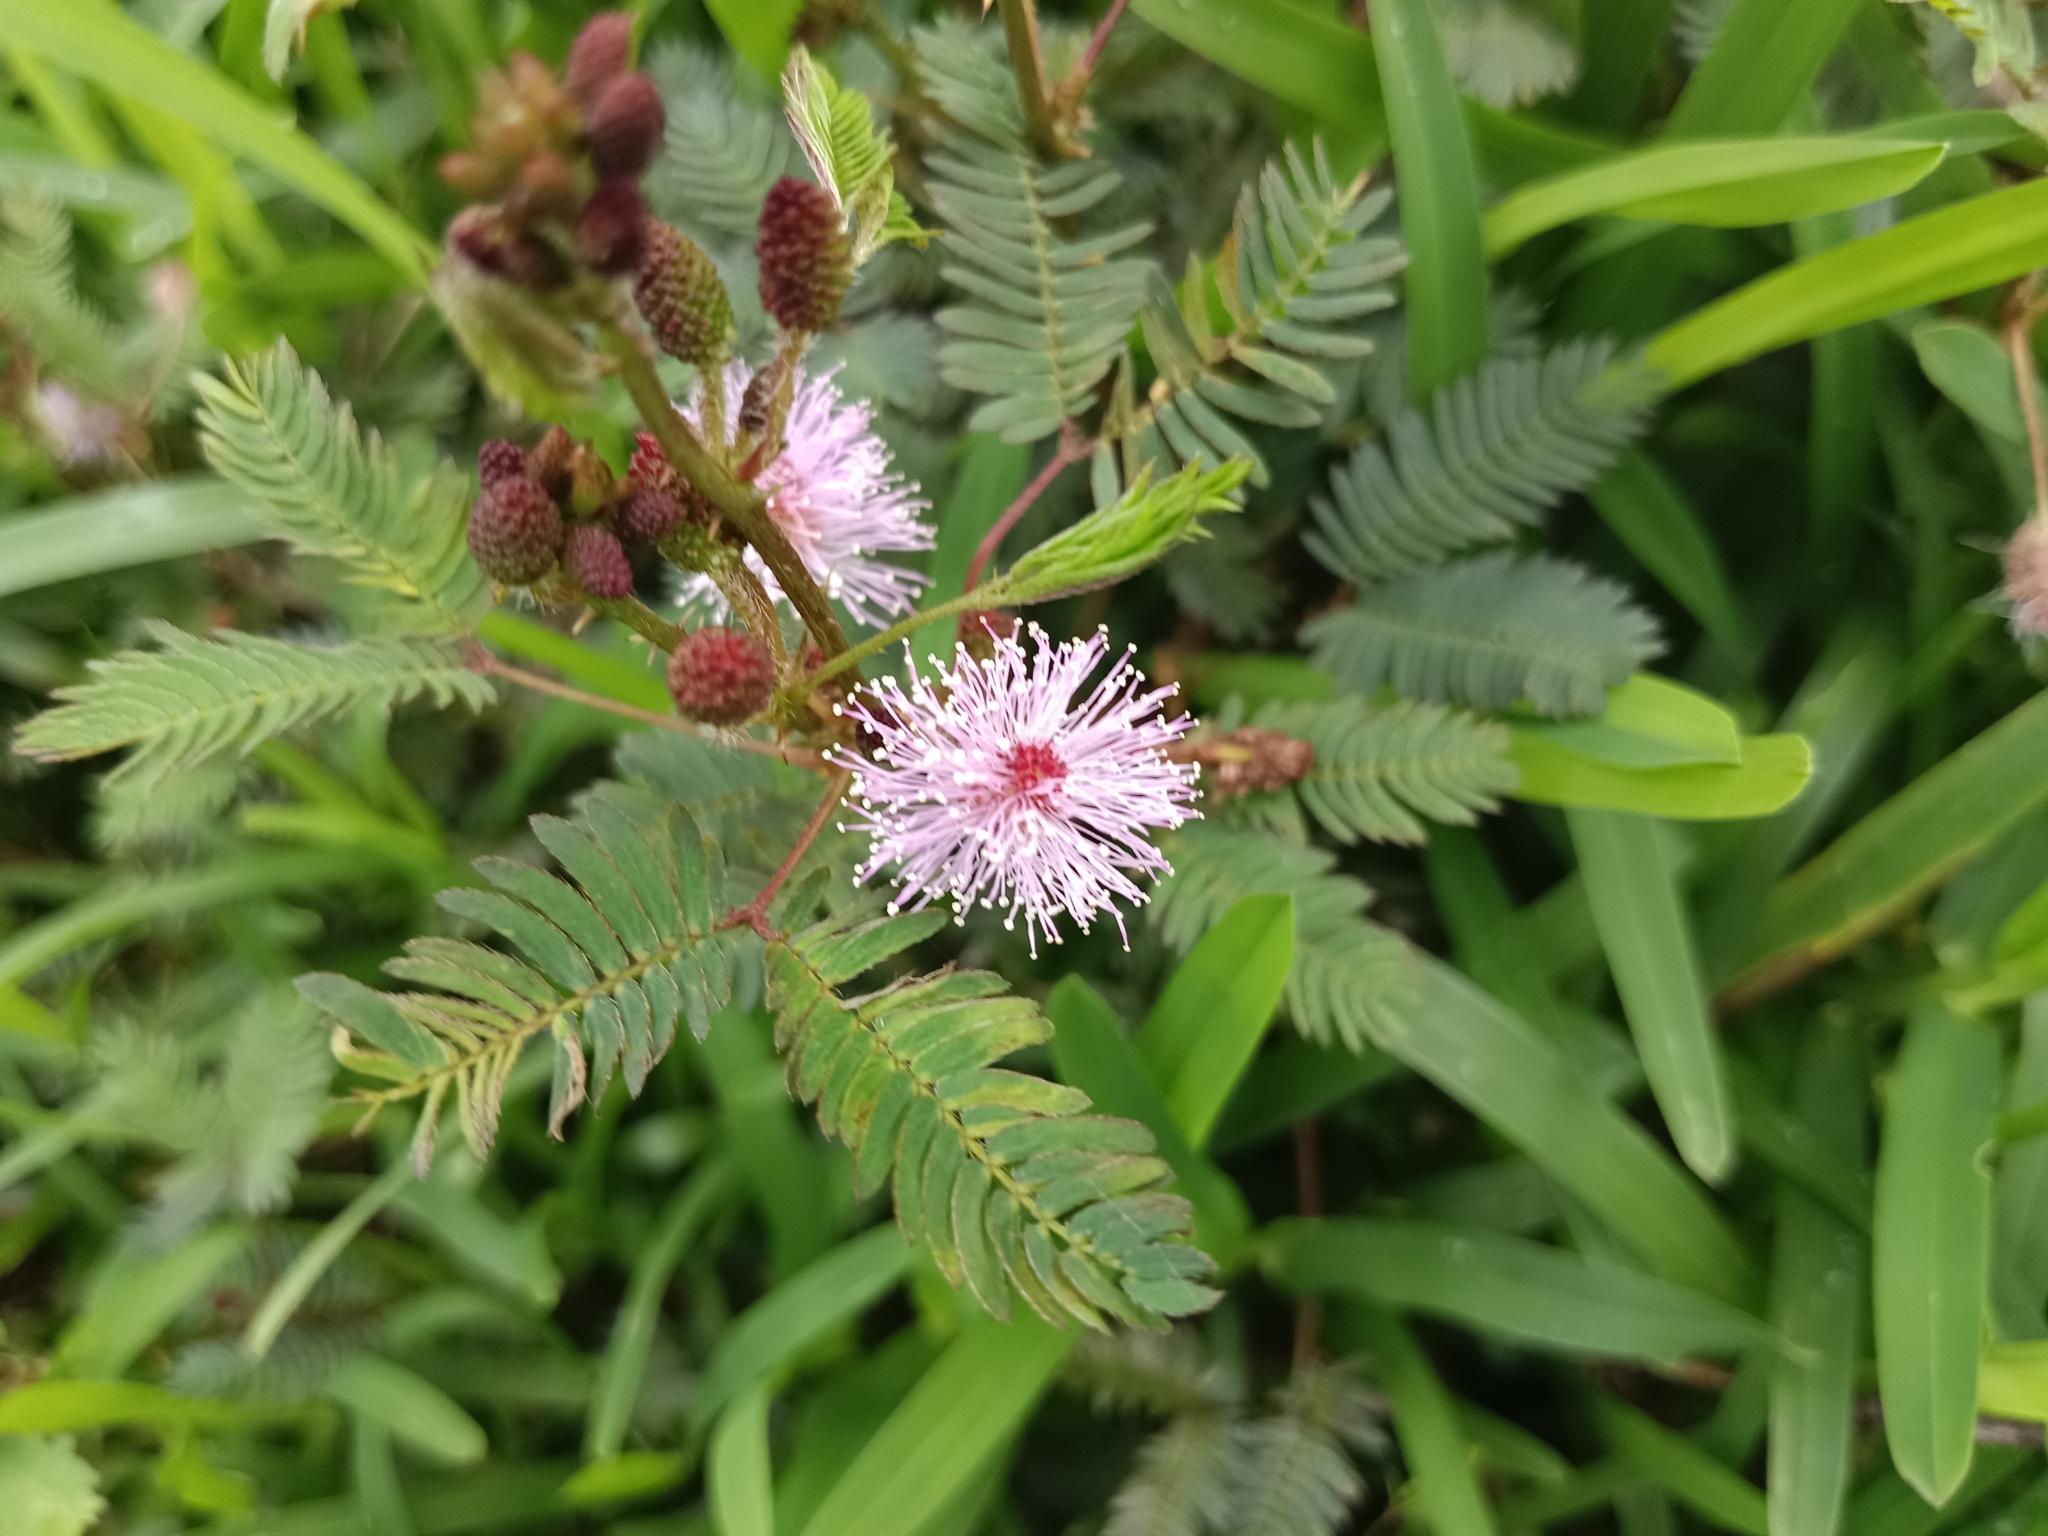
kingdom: Plantae
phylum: Tracheophyta
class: Magnoliopsida
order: Fabales
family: Fabaceae
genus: Mimosa
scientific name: Mimosa pudica
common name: Sensitive plant
